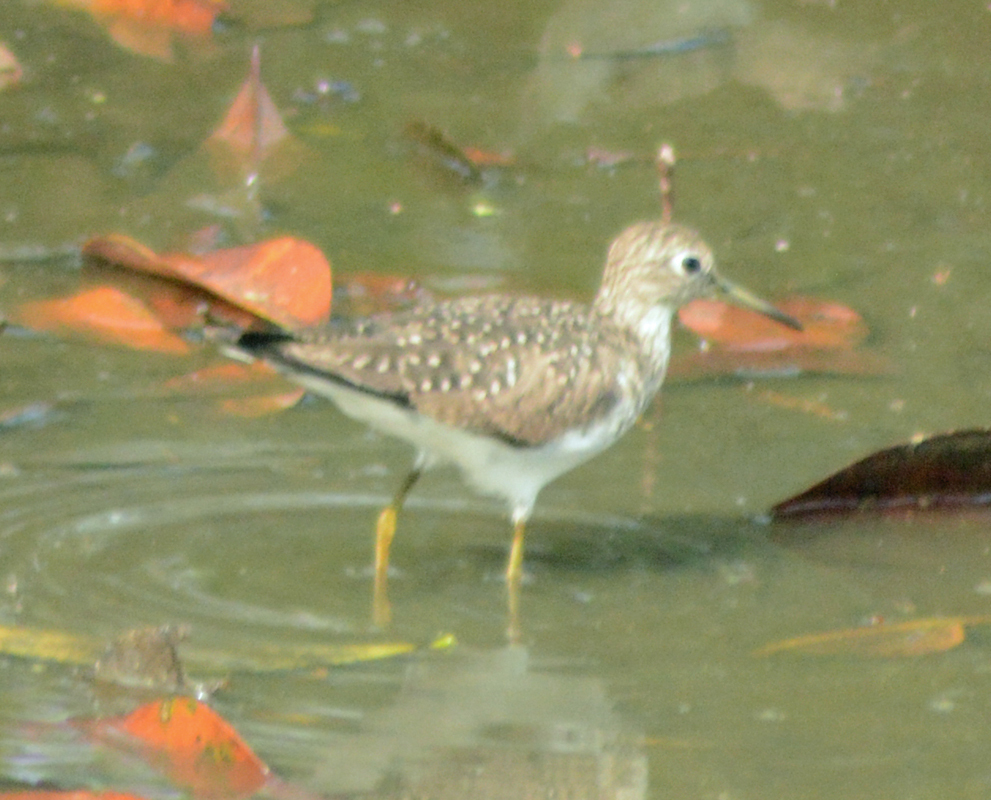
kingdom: Animalia
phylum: Chordata
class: Aves
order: Charadriiformes
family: Scolopacidae
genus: Tringa
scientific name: Tringa solitaria
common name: Solitary sandpiper
